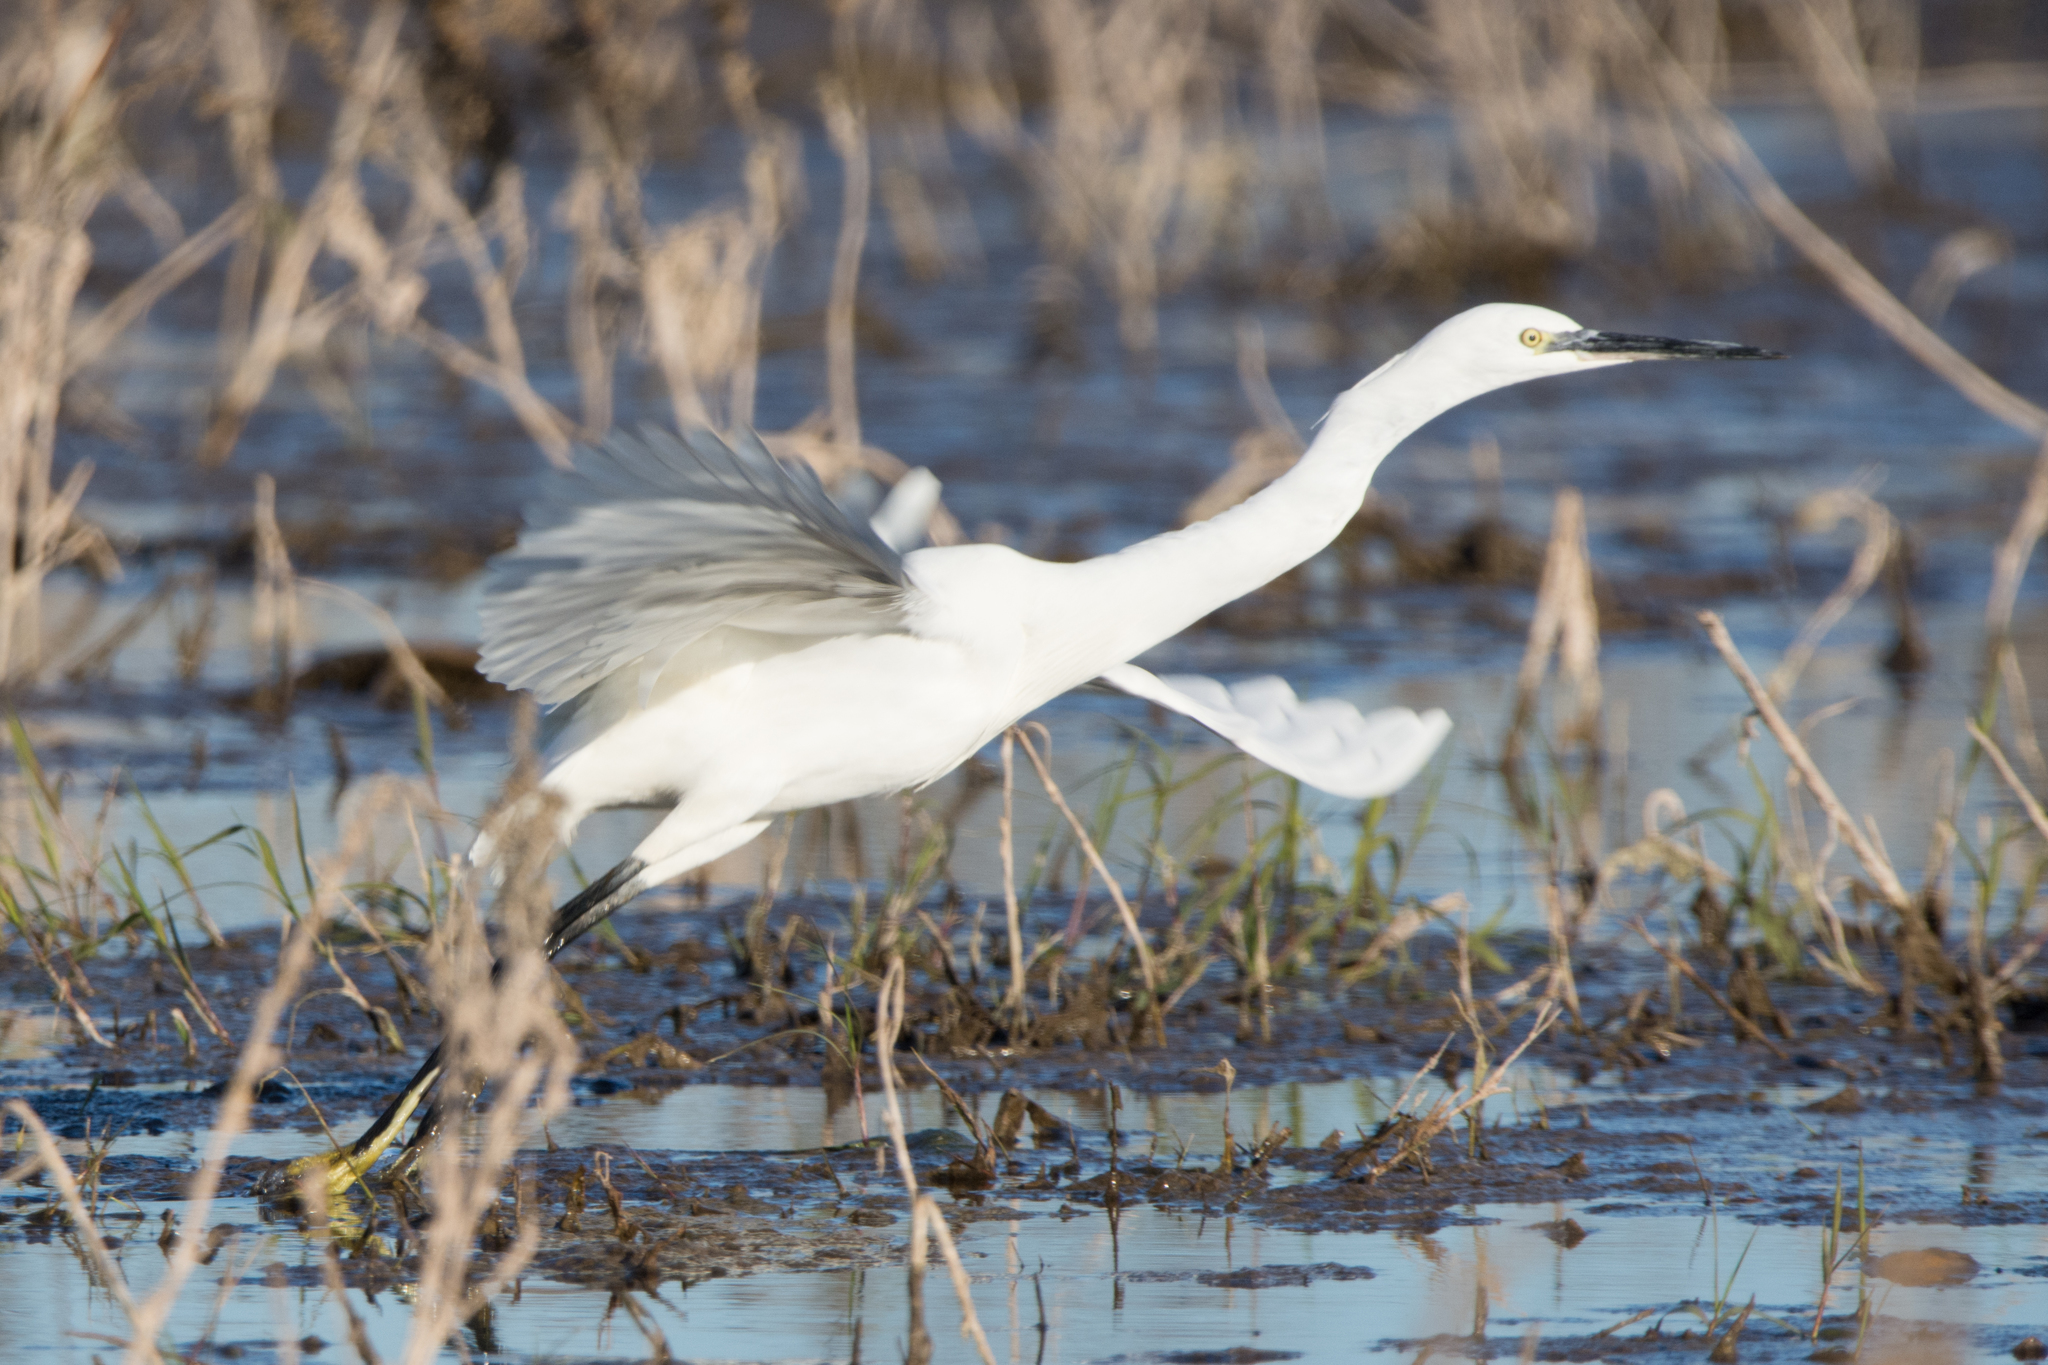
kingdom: Animalia
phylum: Chordata
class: Aves
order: Pelecaniformes
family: Ardeidae
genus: Egretta
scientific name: Egretta garzetta
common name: Little egret
